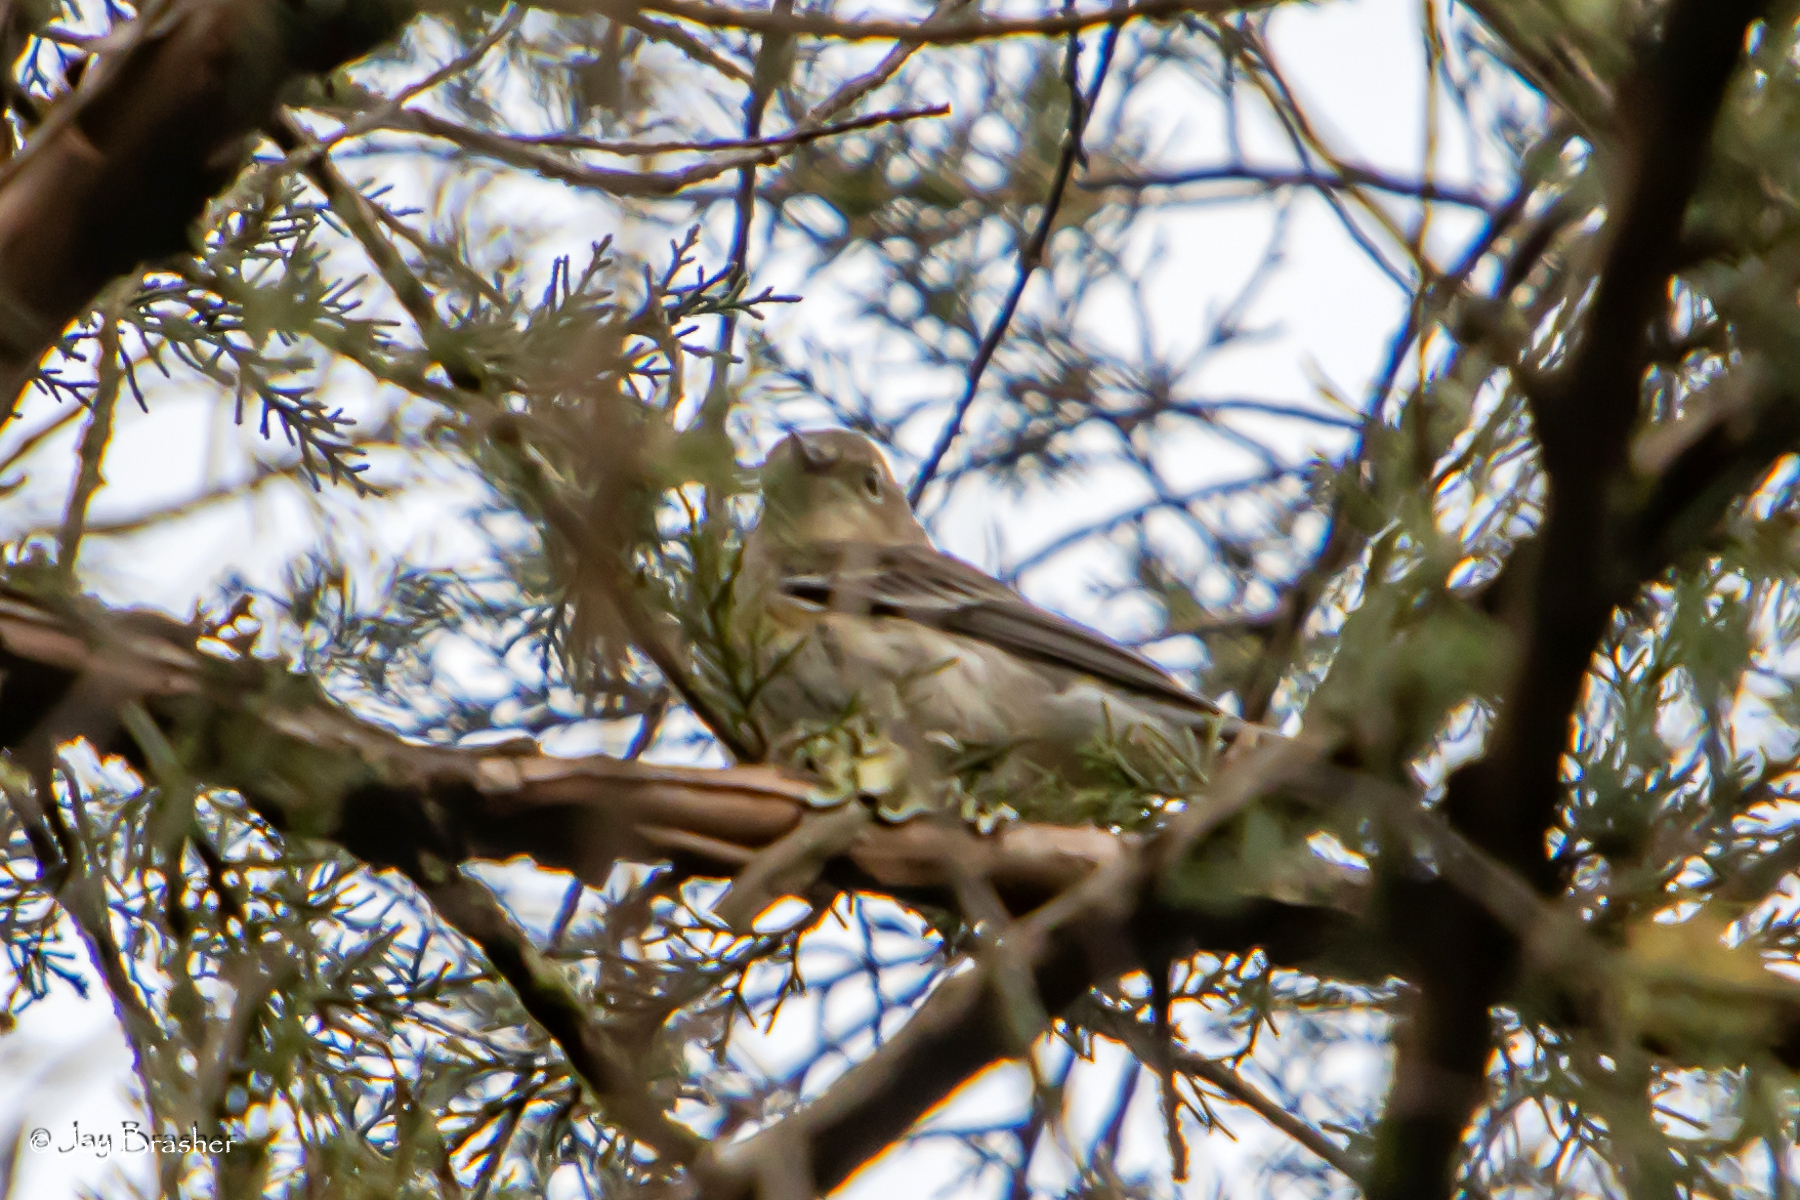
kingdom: Animalia
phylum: Chordata
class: Aves
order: Passeriformes
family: Parulidae
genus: Setophaga
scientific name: Setophaga coronata
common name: Myrtle warbler
